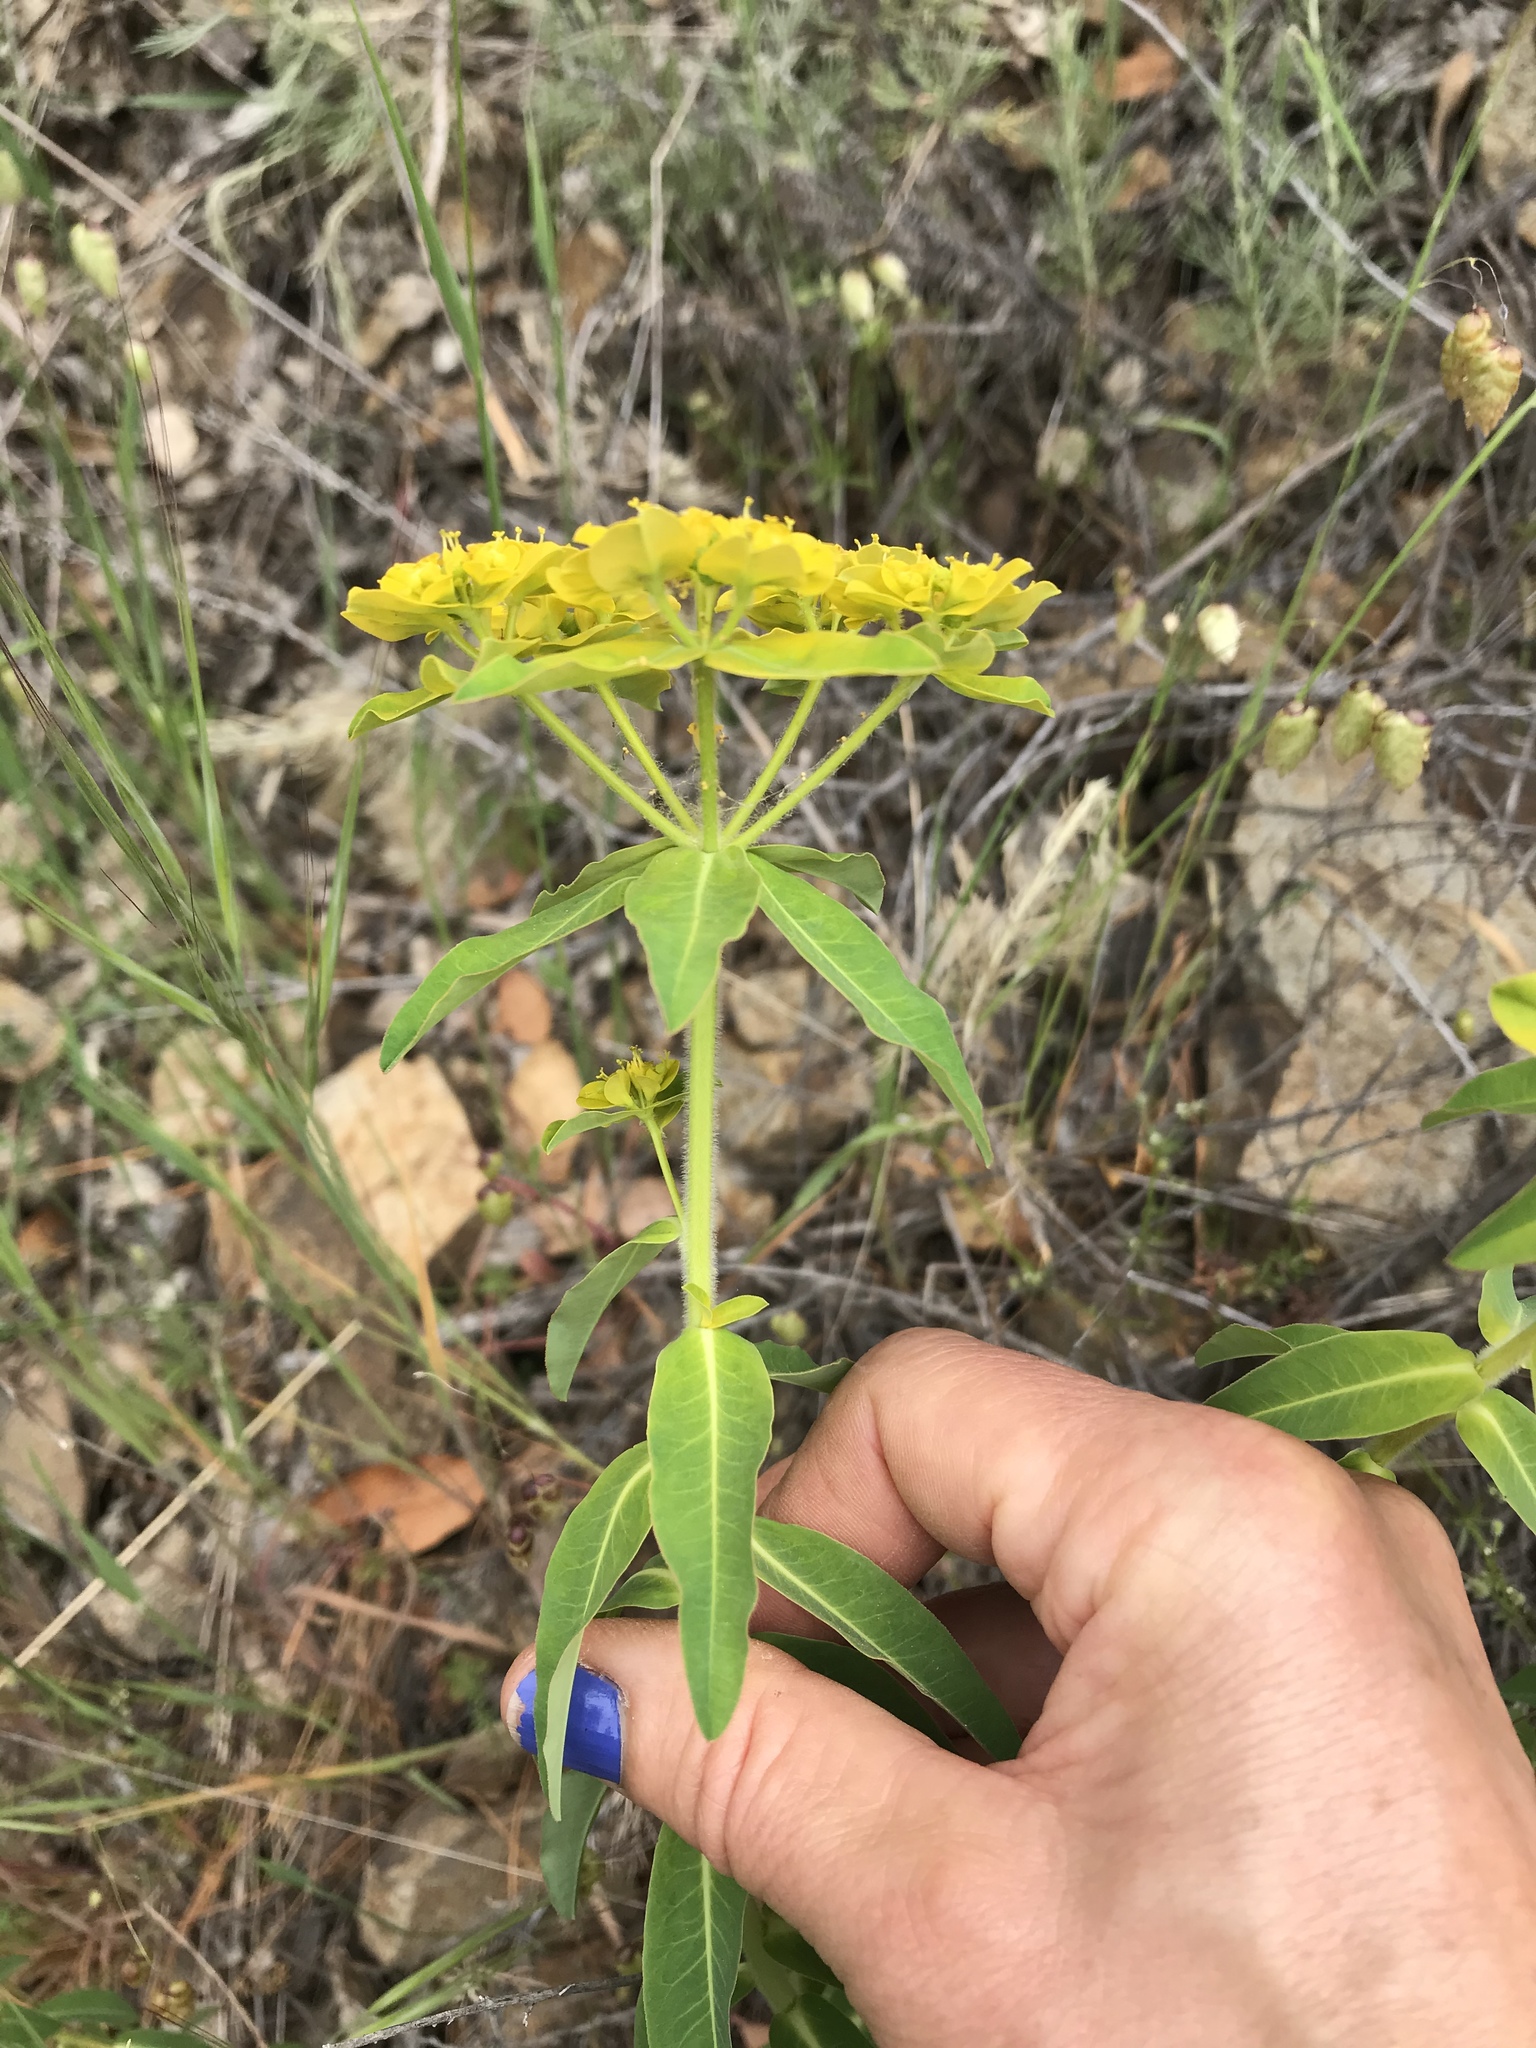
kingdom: Plantae
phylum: Tracheophyta
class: Magnoliopsida
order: Malpighiales
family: Euphorbiaceae
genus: Euphorbia
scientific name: Euphorbia oblongata
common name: Balkan spurge
